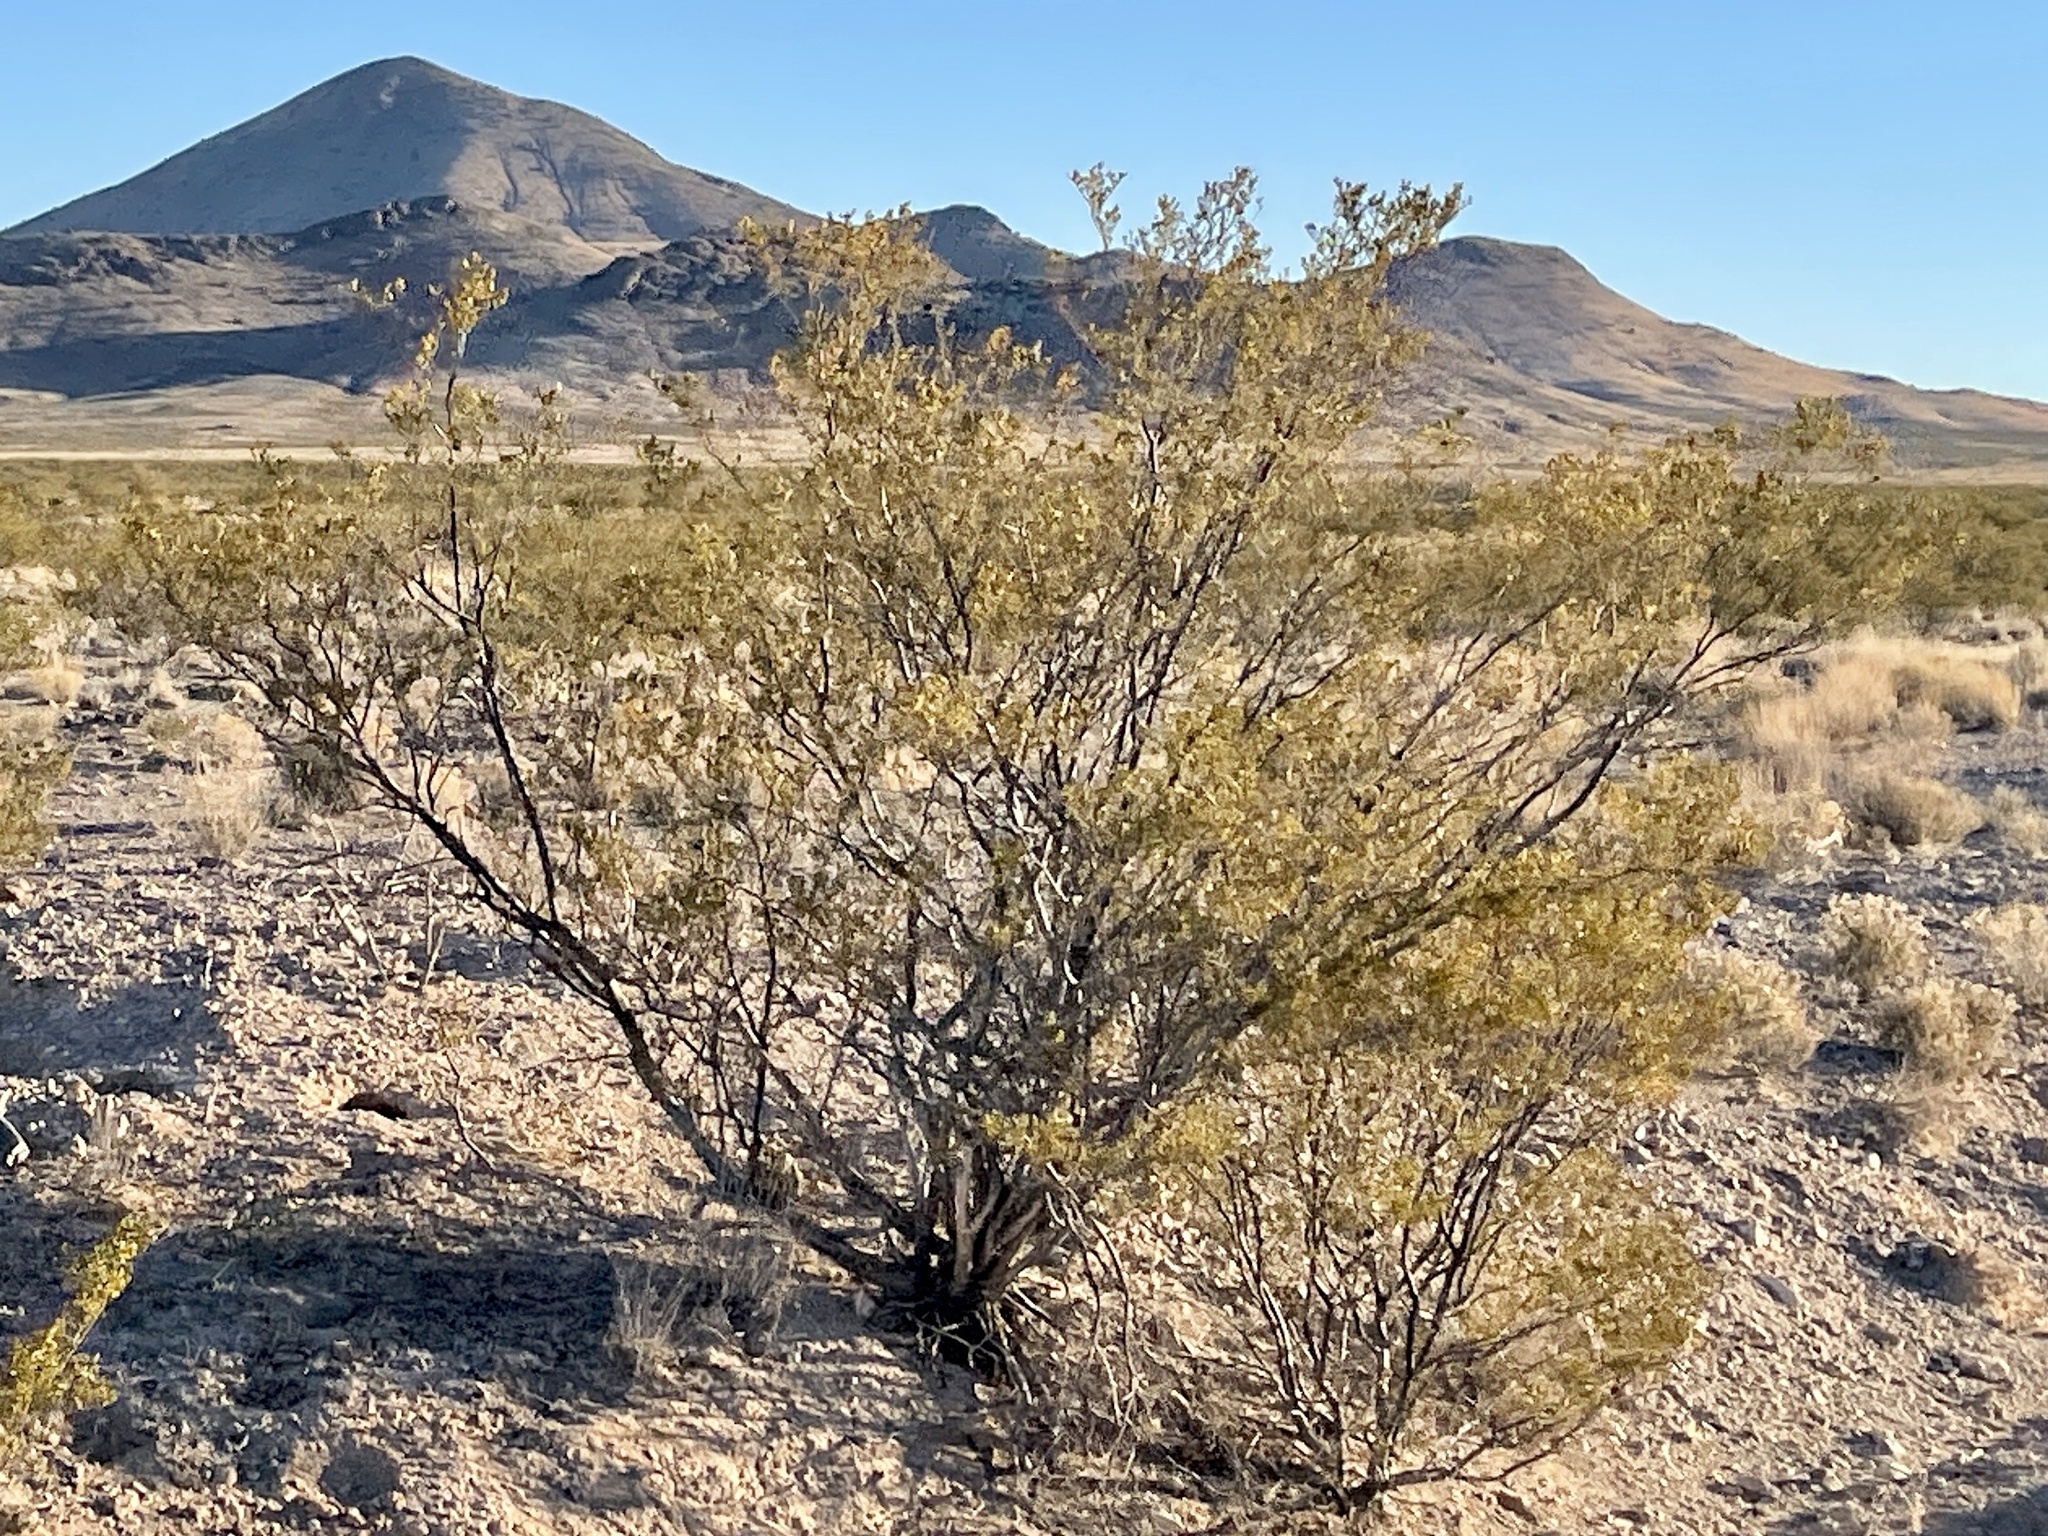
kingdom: Plantae
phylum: Tracheophyta
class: Magnoliopsida
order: Zygophyllales
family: Zygophyllaceae
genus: Larrea
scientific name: Larrea tridentata
